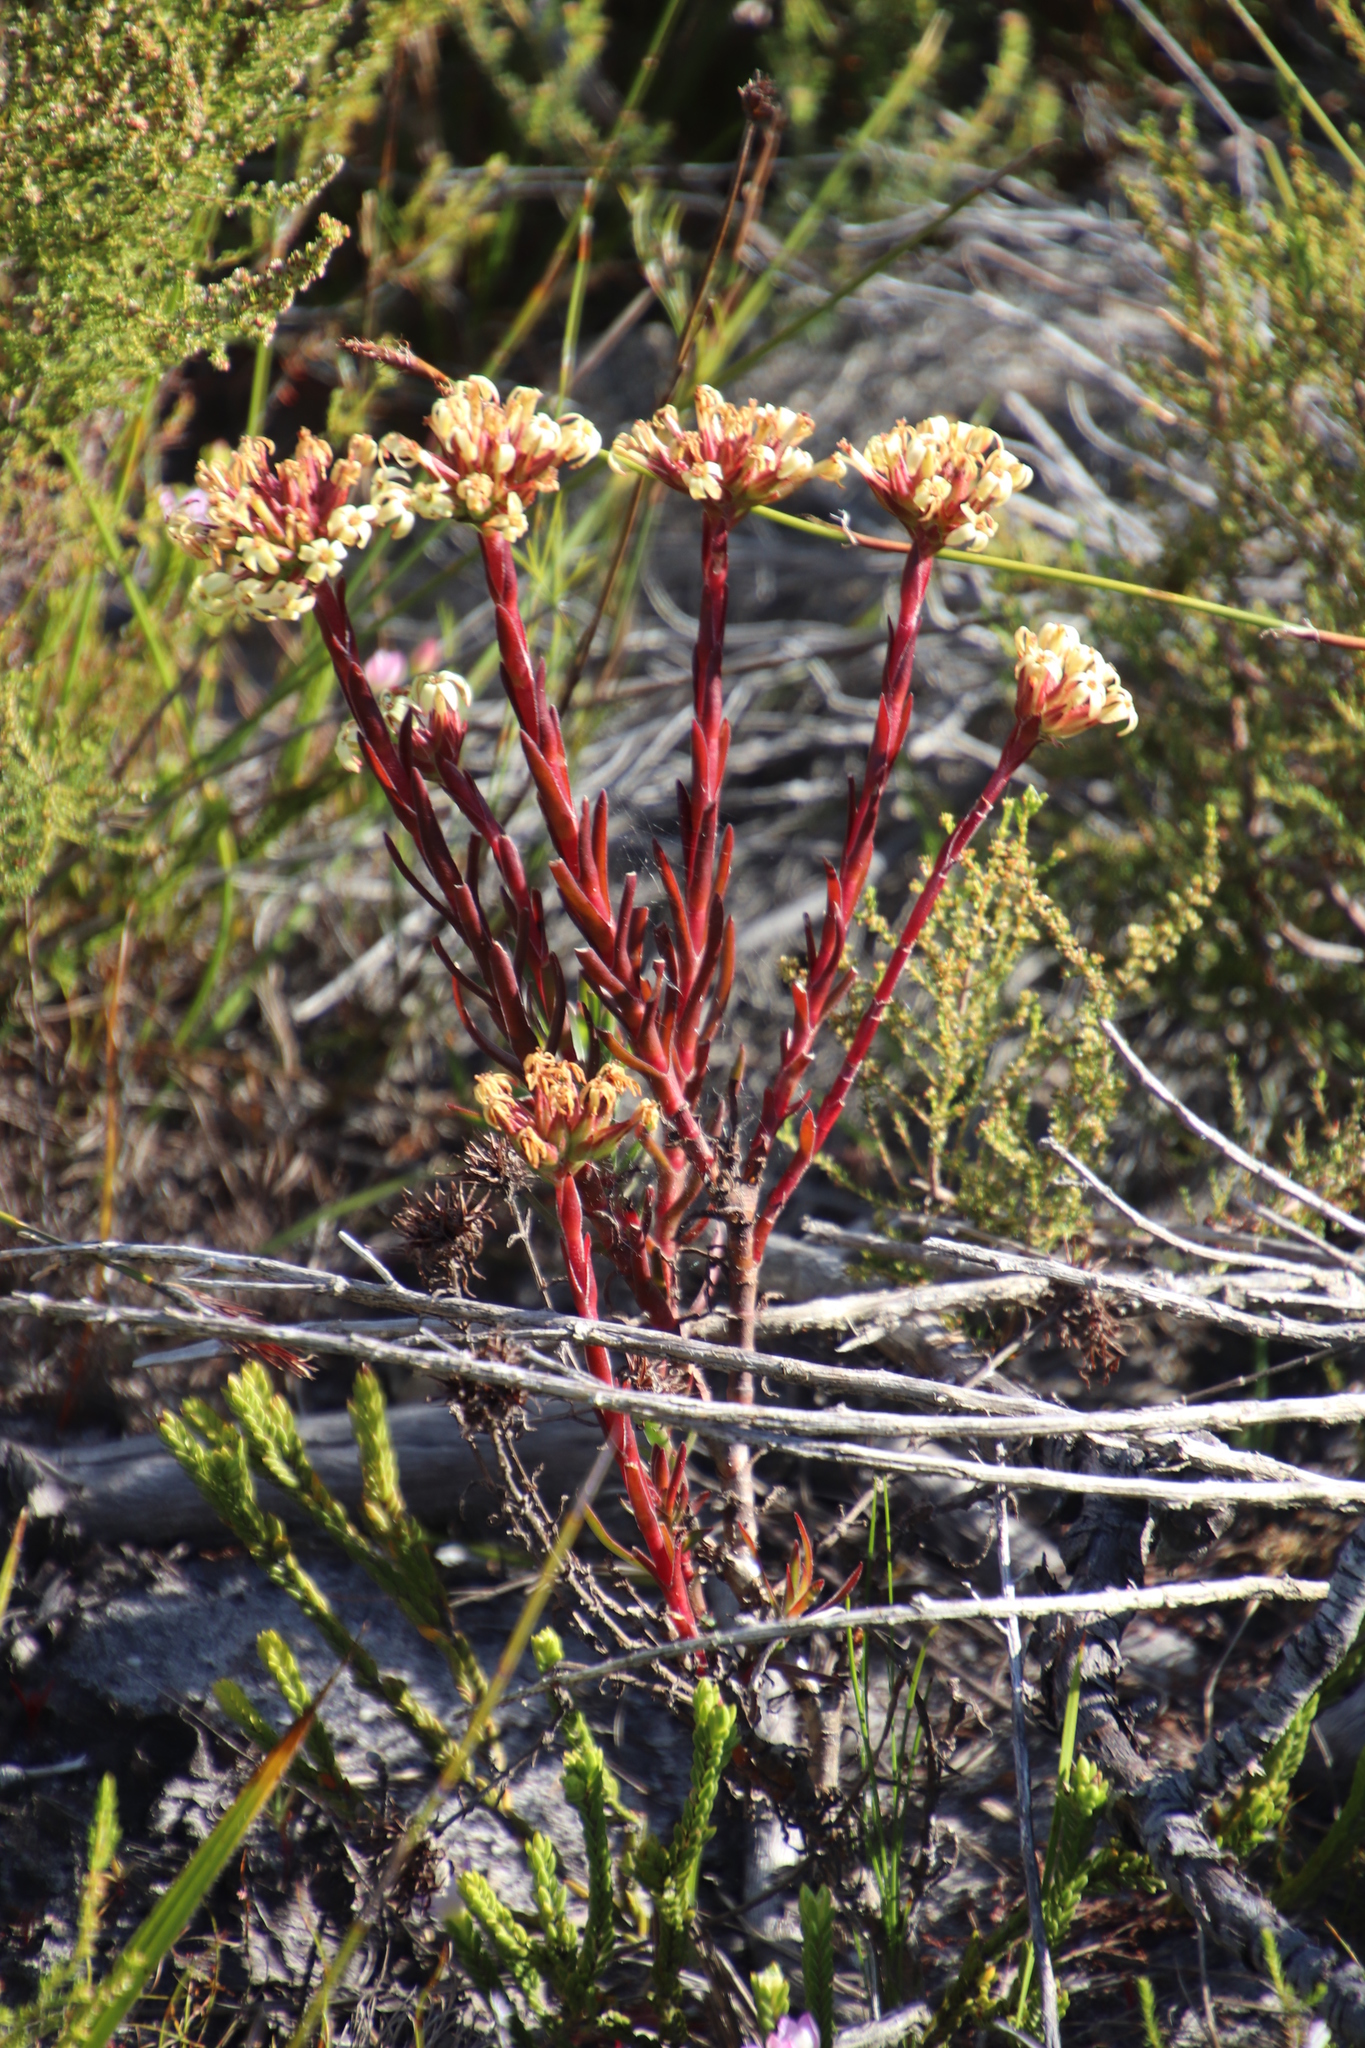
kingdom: Plantae
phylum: Tracheophyta
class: Magnoliopsida
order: Saxifragales
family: Crassulaceae
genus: Crassula
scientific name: Crassula fascicularis
